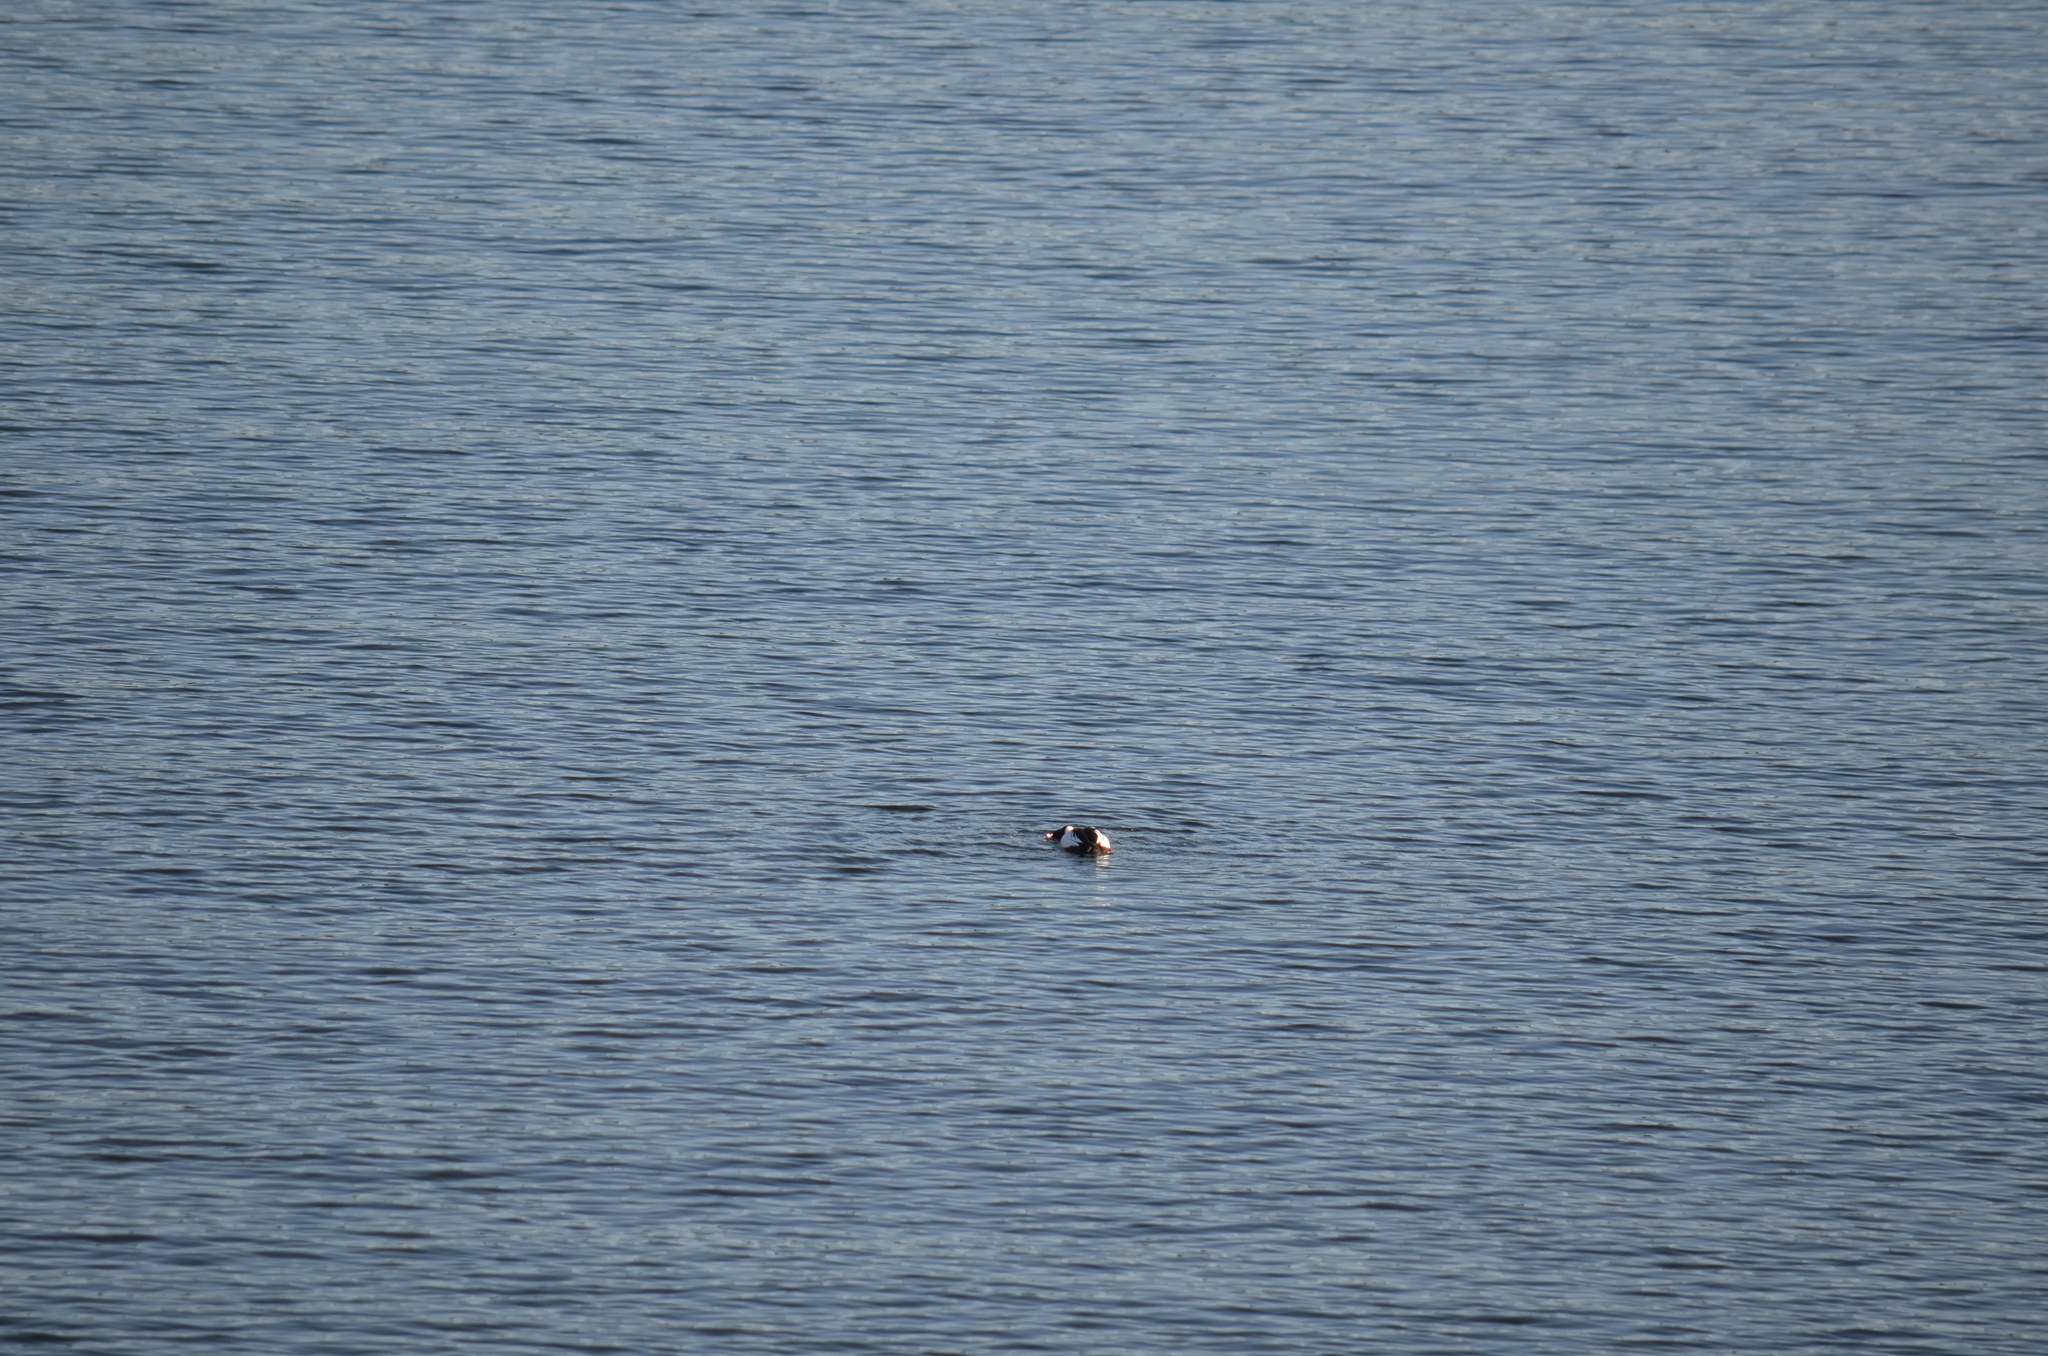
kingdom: Animalia
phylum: Chordata
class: Aves
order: Anseriformes
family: Anatidae
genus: Bucephala
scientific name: Bucephala clangula
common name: Common goldeneye
